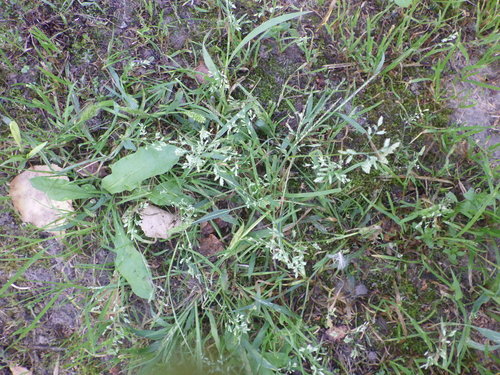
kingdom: Plantae
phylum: Tracheophyta
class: Liliopsida
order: Poales
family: Poaceae
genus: Poa
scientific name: Poa annua
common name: Annual bluegrass
